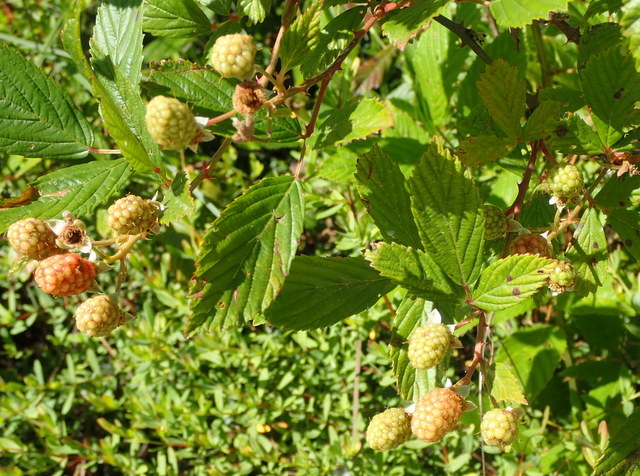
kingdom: Plantae
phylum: Tracheophyta
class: Magnoliopsida
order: Rosales
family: Rosaceae
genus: Rubus
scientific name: Rubus pensilvanicus
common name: Pennsylvania blackberry
